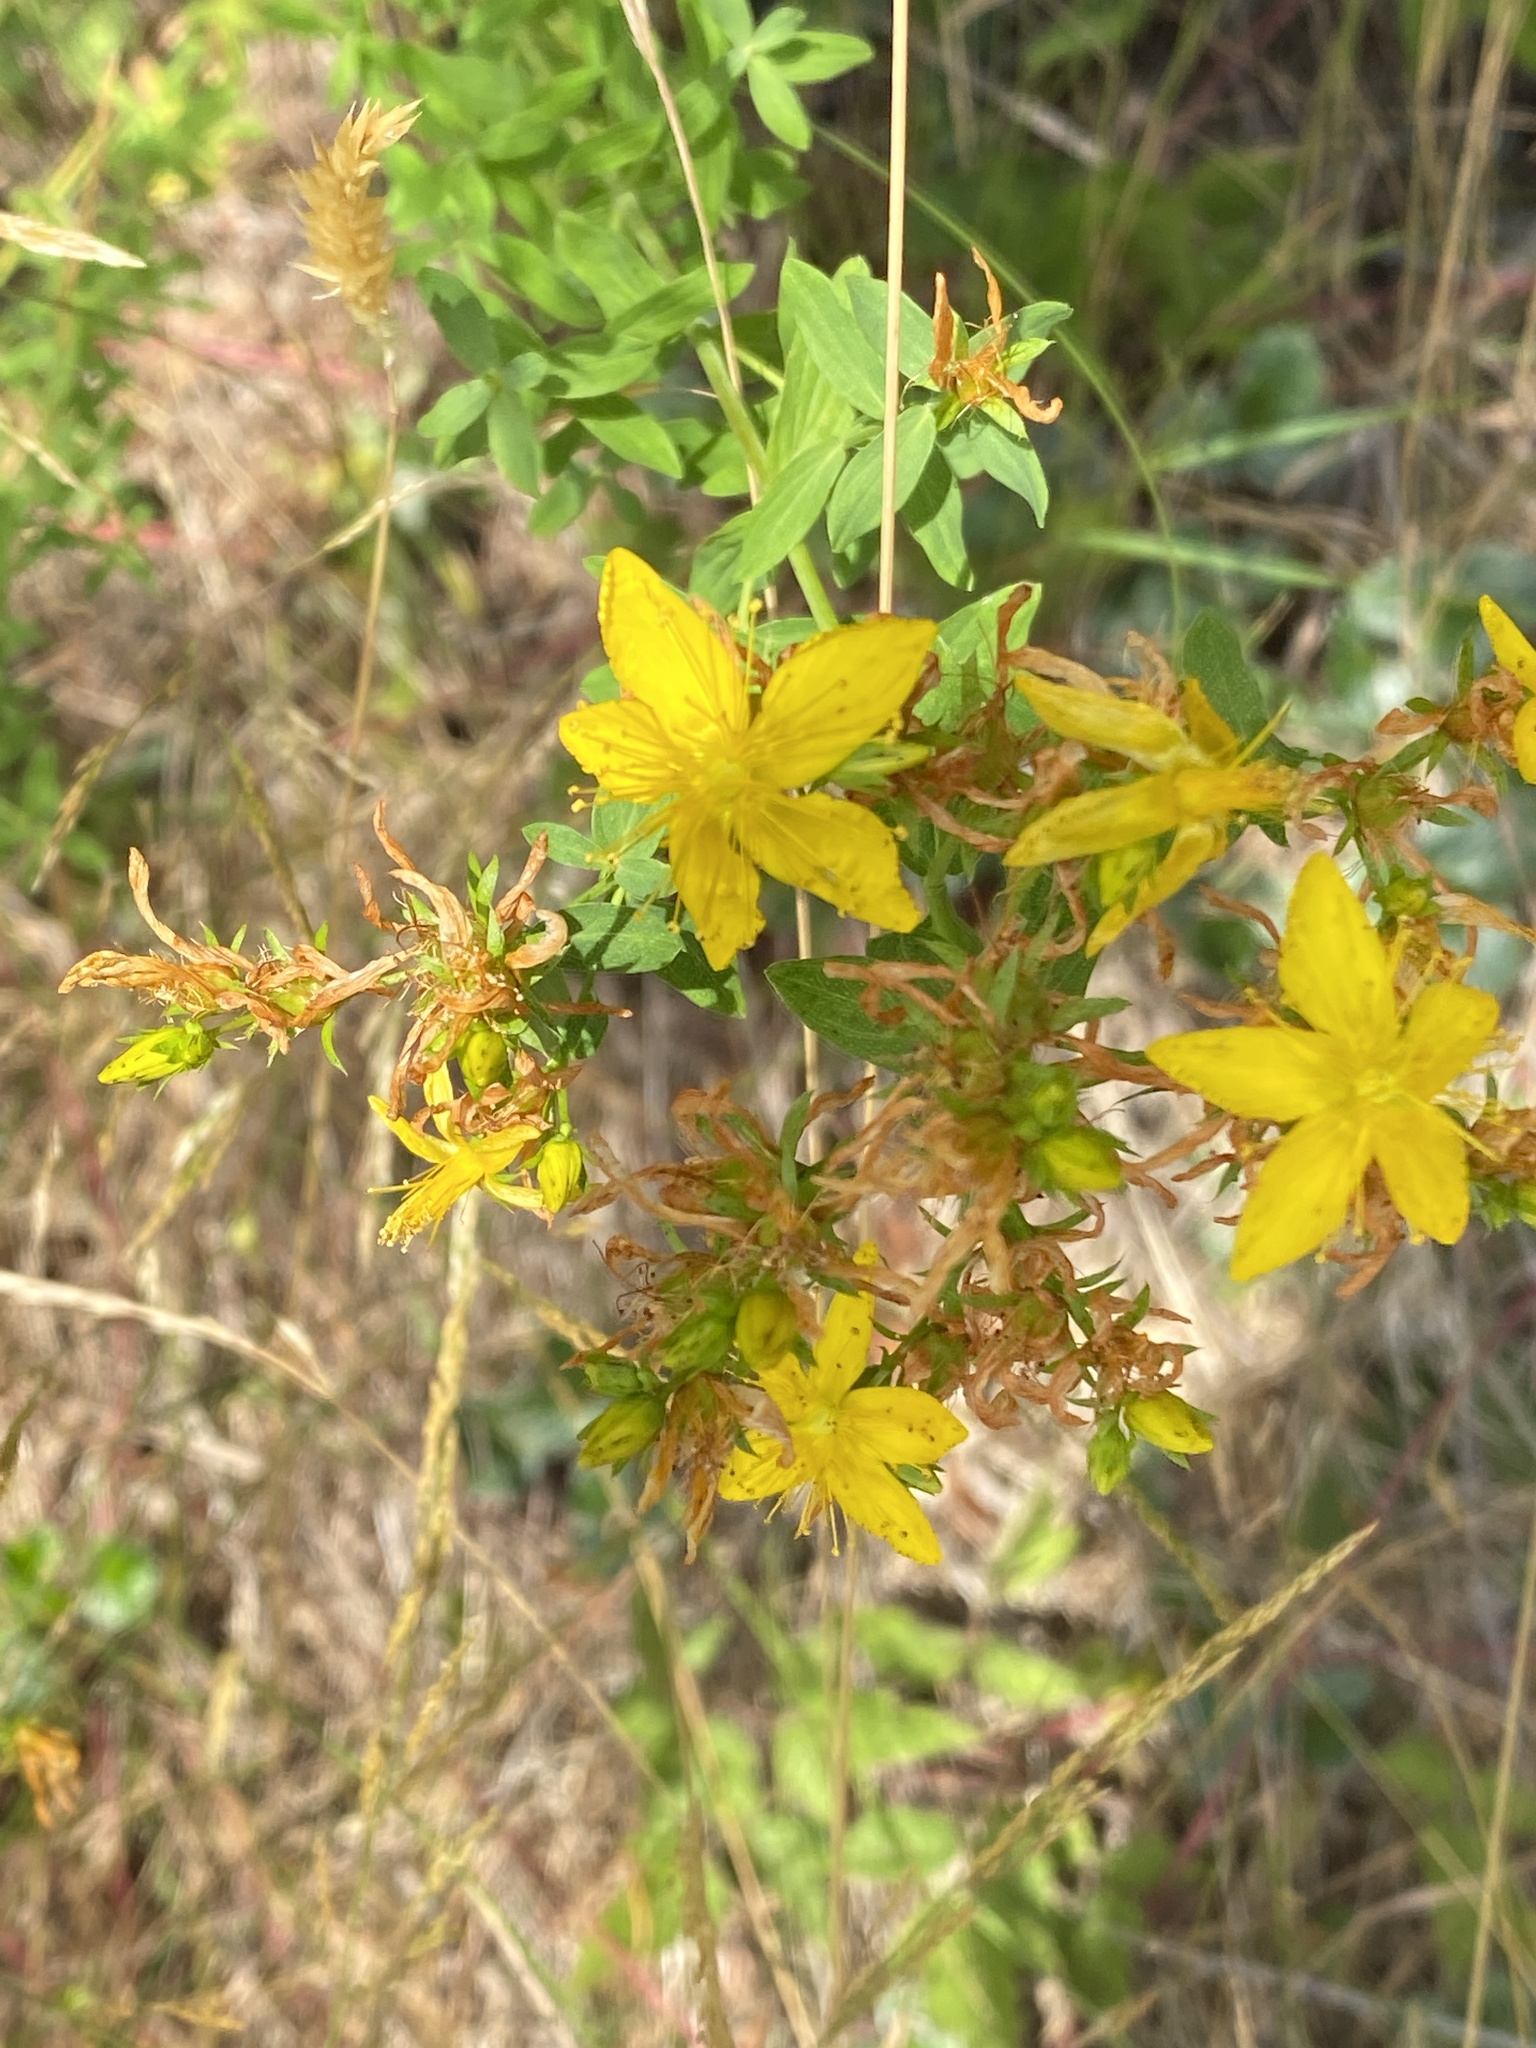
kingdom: Plantae
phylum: Tracheophyta
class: Magnoliopsida
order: Malpighiales
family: Hypericaceae
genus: Hypericum
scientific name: Hypericum perforatum
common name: Common st. johnswort
